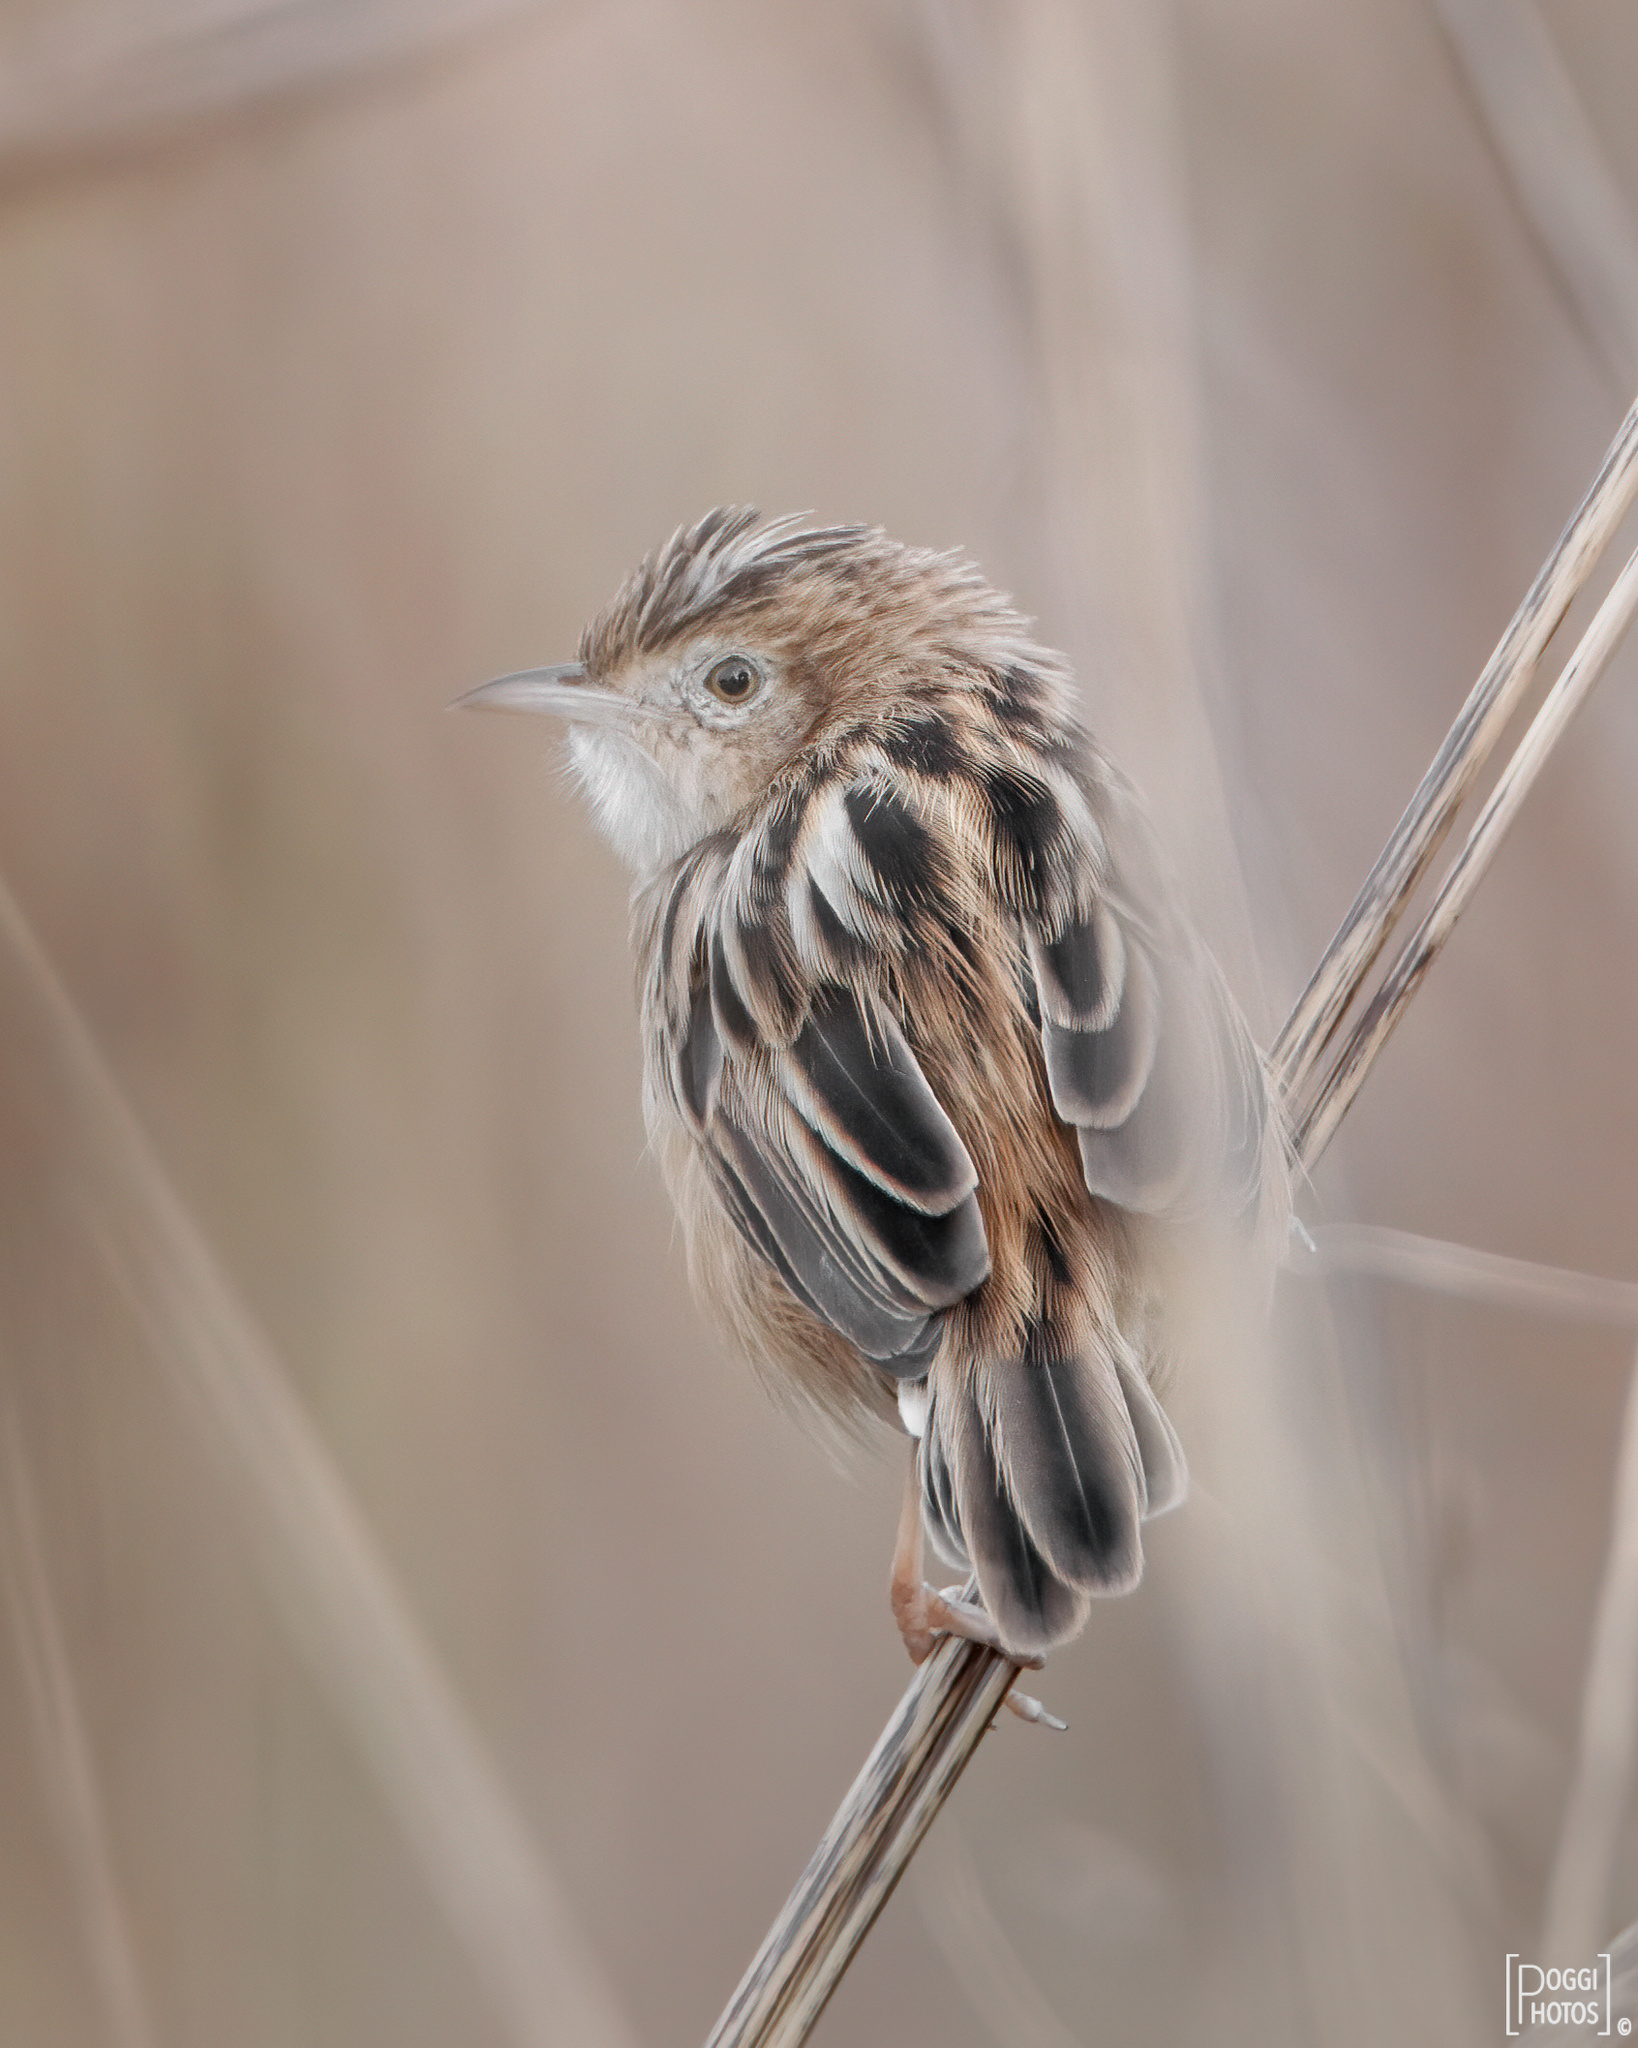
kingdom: Animalia
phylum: Chordata
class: Aves
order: Passeriformes
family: Cisticolidae
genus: Cisticola
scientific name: Cisticola juncidis
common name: Zitting cisticola
